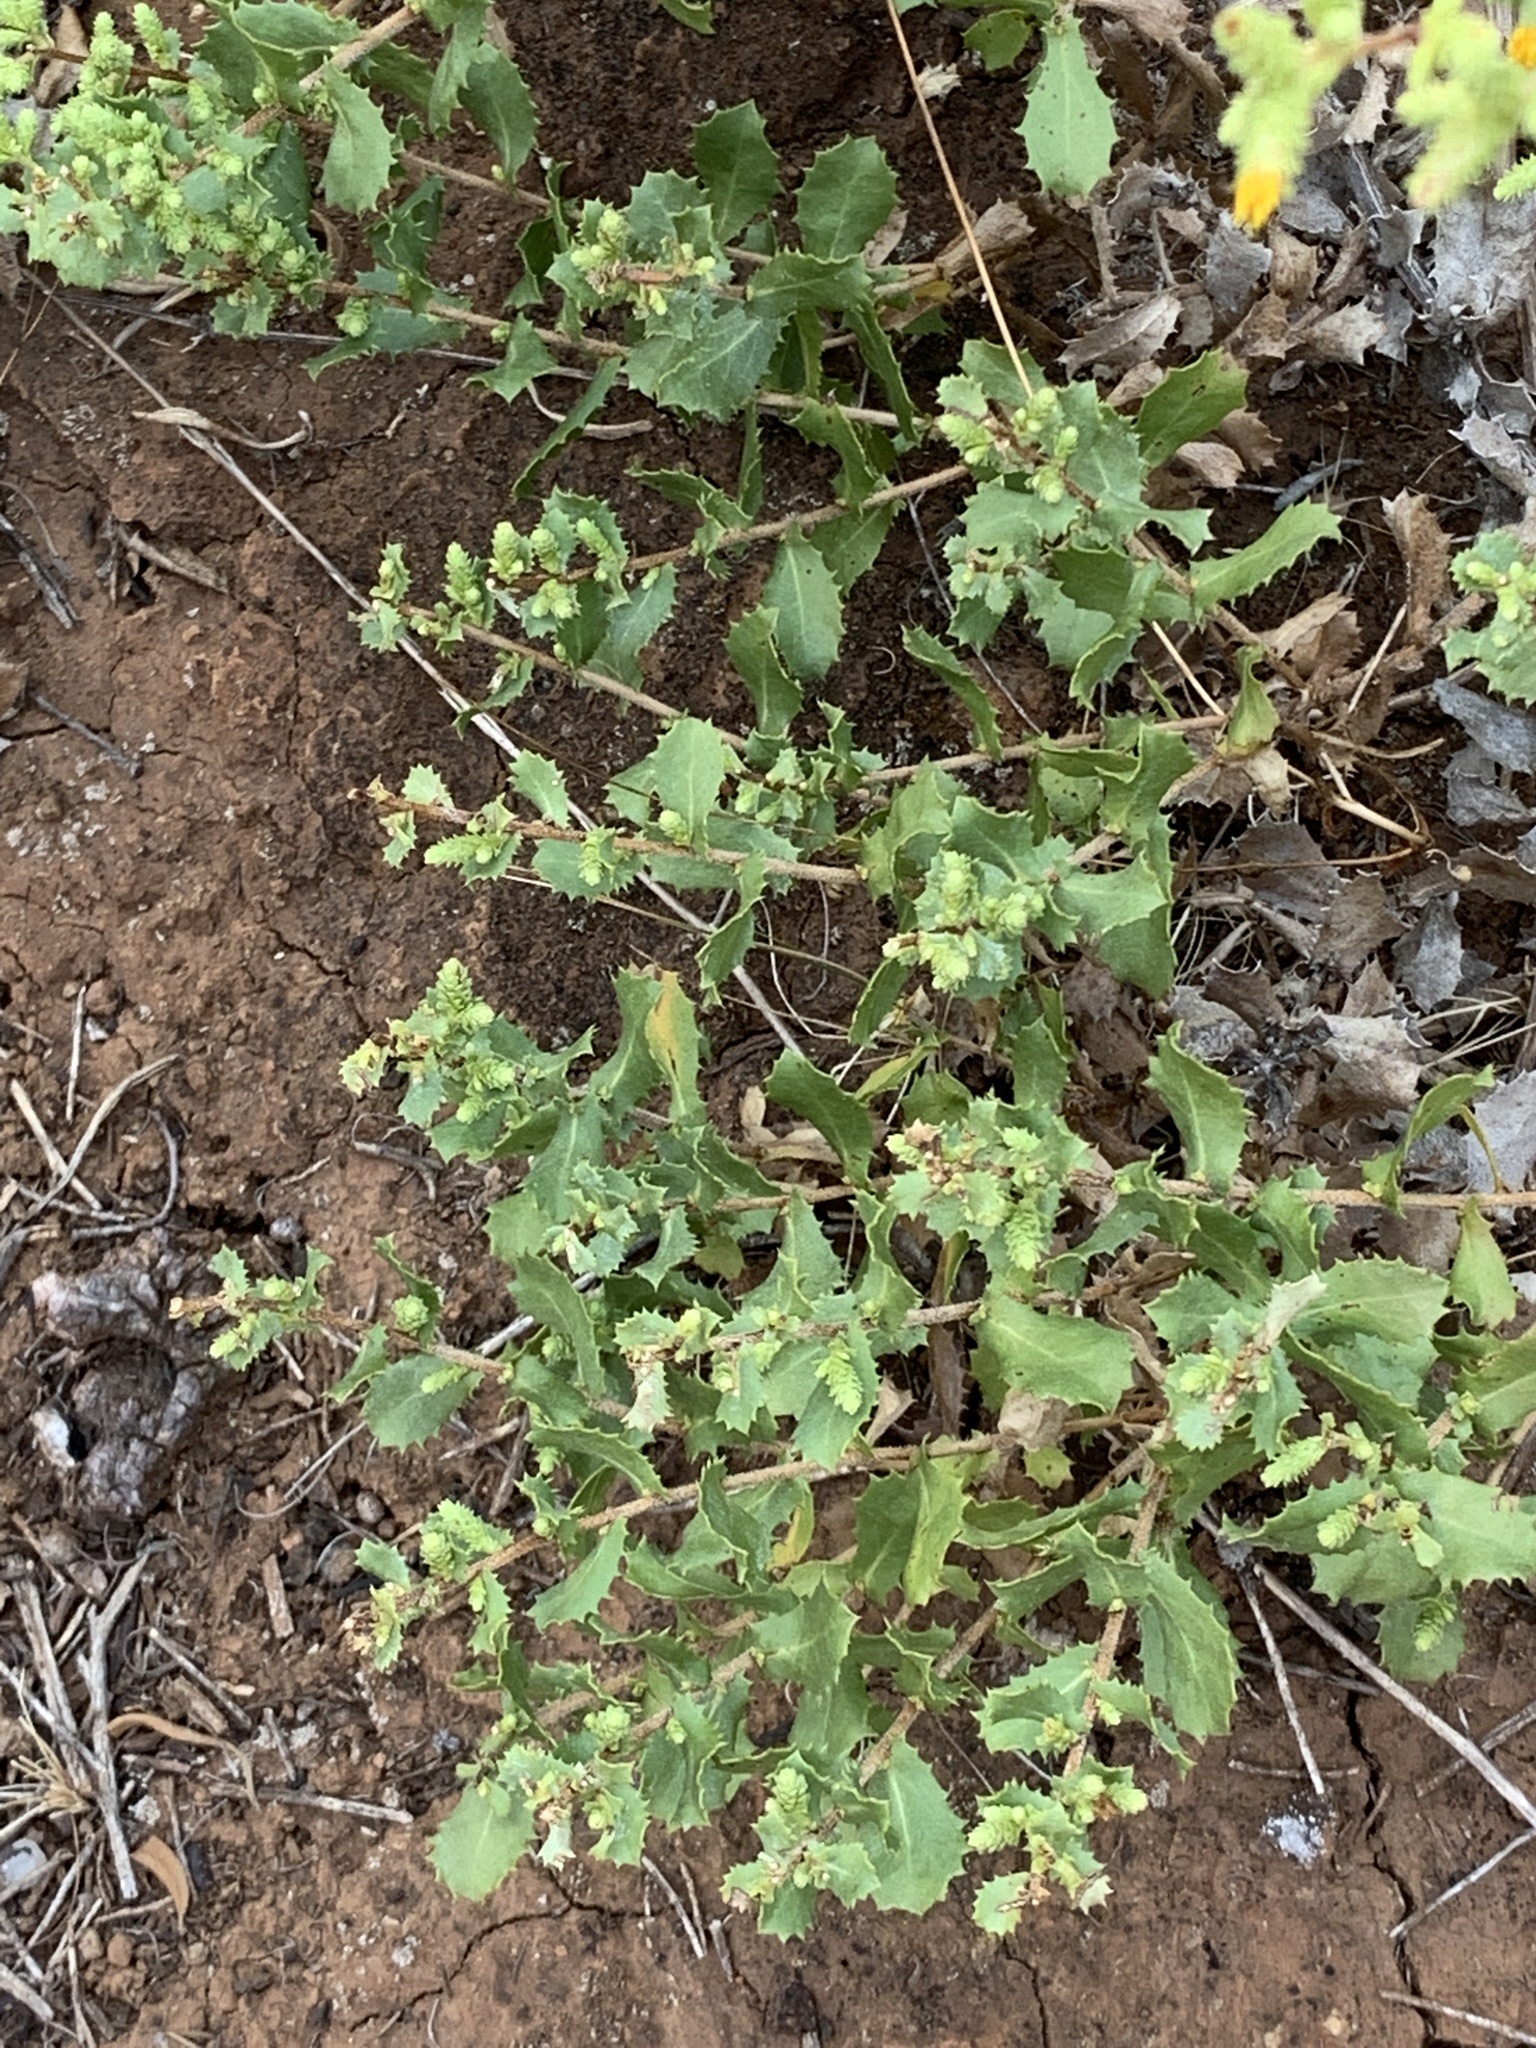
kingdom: Plantae
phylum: Tracheophyta
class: Magnoliopsida
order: Asterales
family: Asteraceae
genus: Hazardia
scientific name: Hazardia squarrosa
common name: Saw-tooth goldenbush
